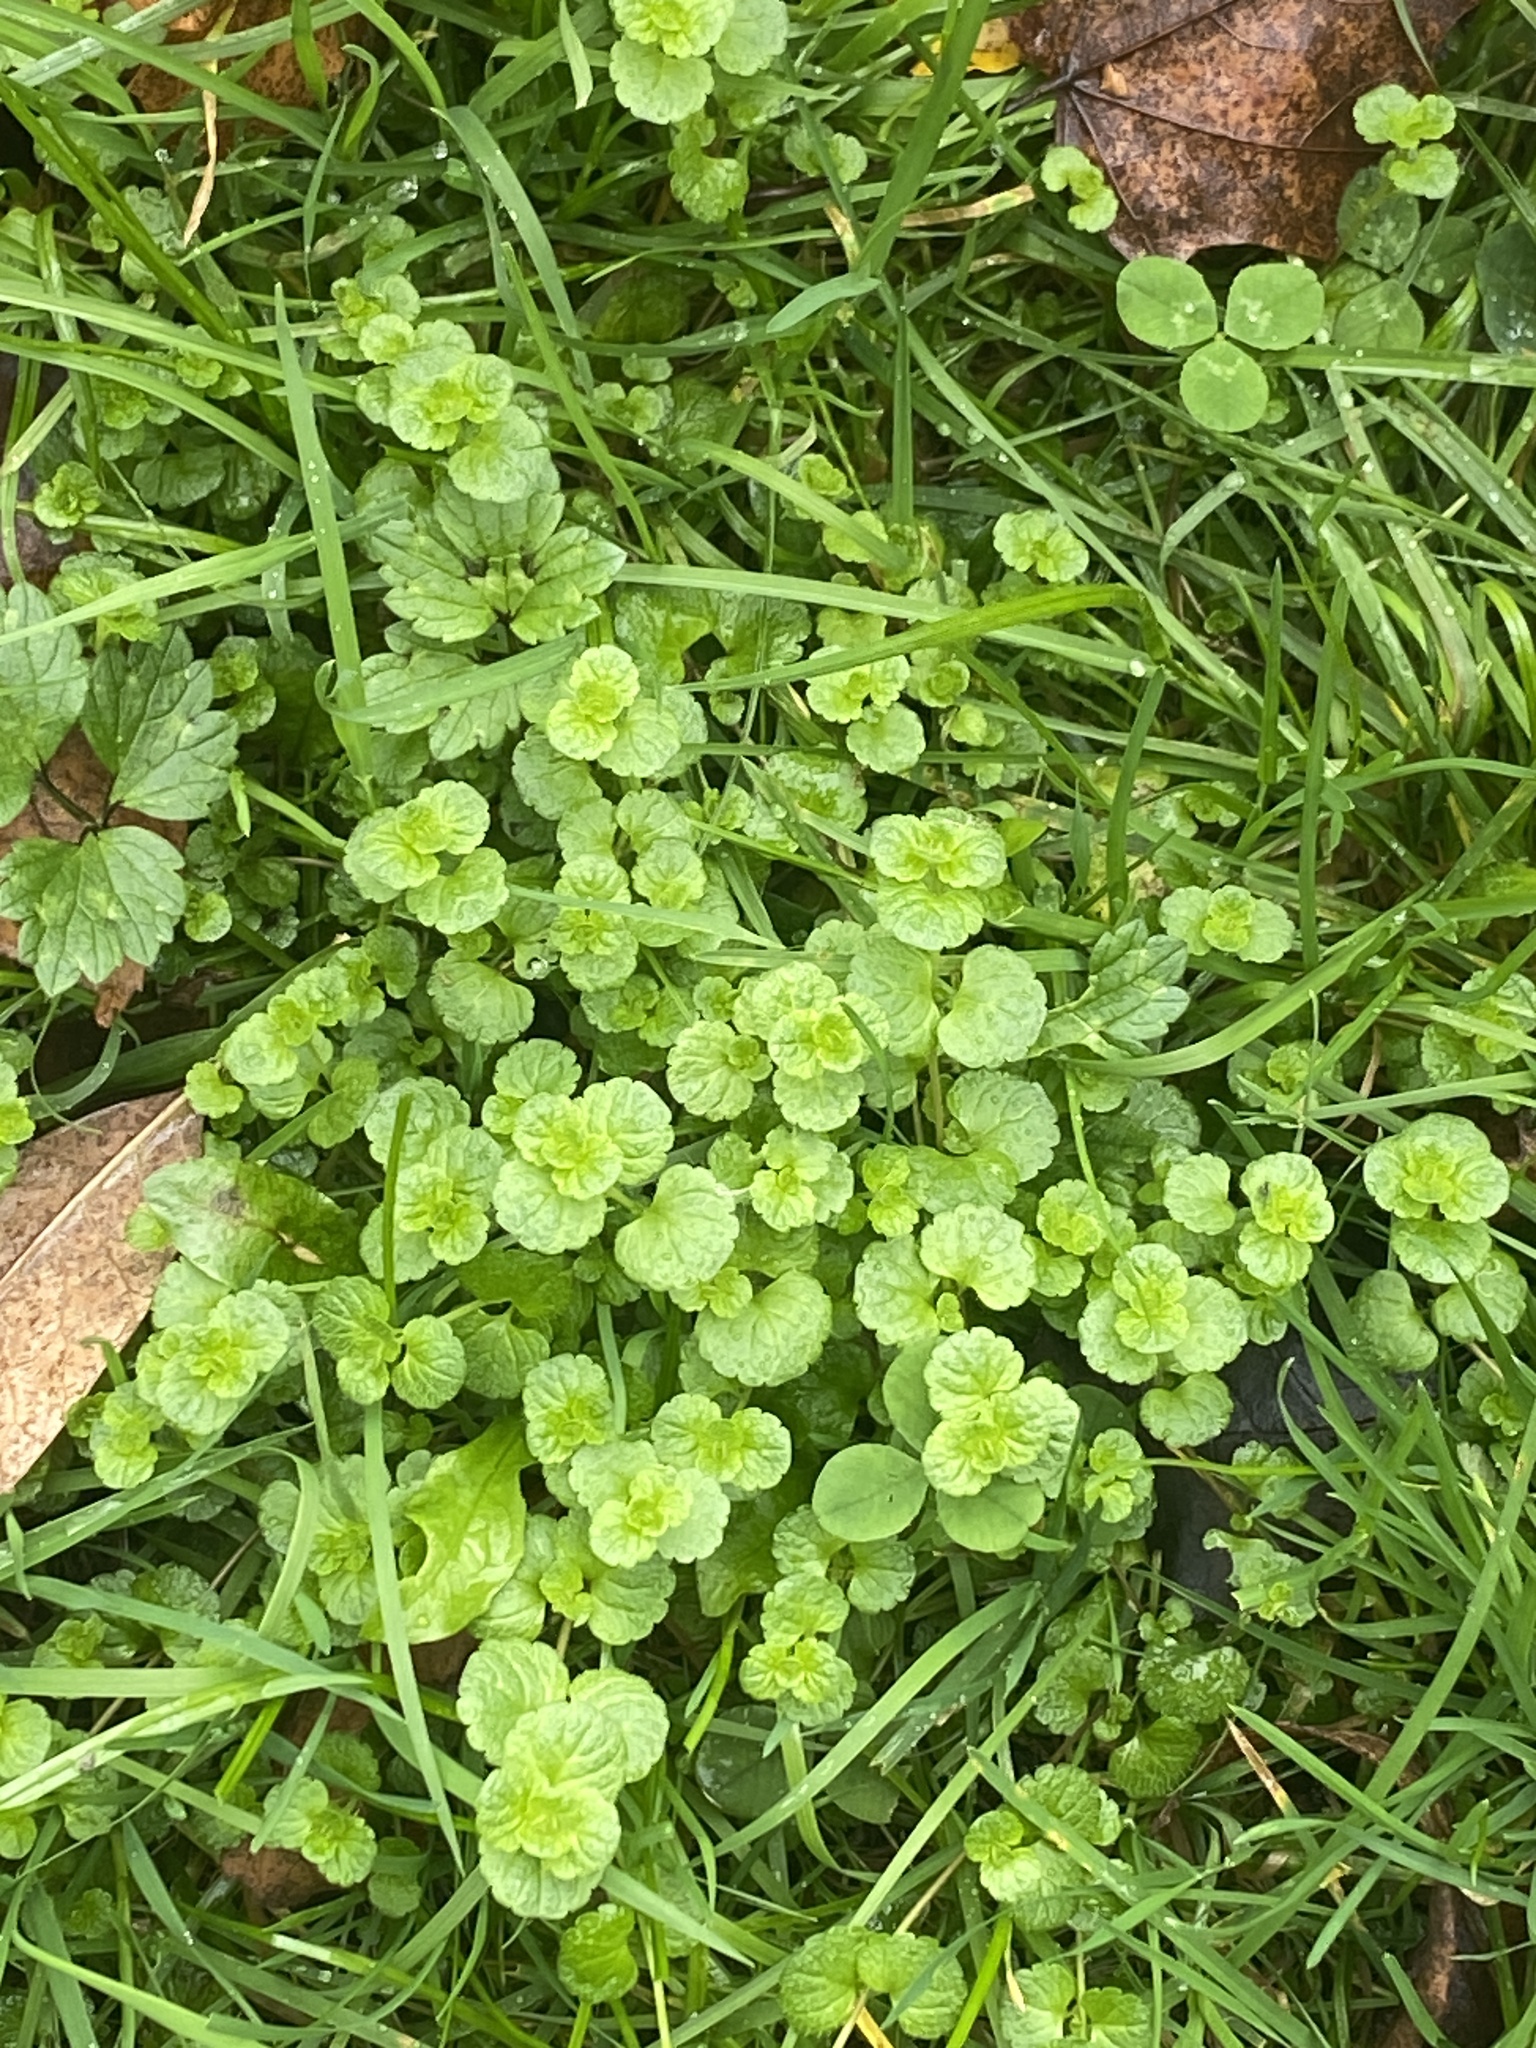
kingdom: Plantae
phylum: Tracheophyta
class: Magnoliopsida
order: Lamiales
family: Plantaginaceae
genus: Veronica
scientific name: Veronica filiformis
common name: Slender speedwell
